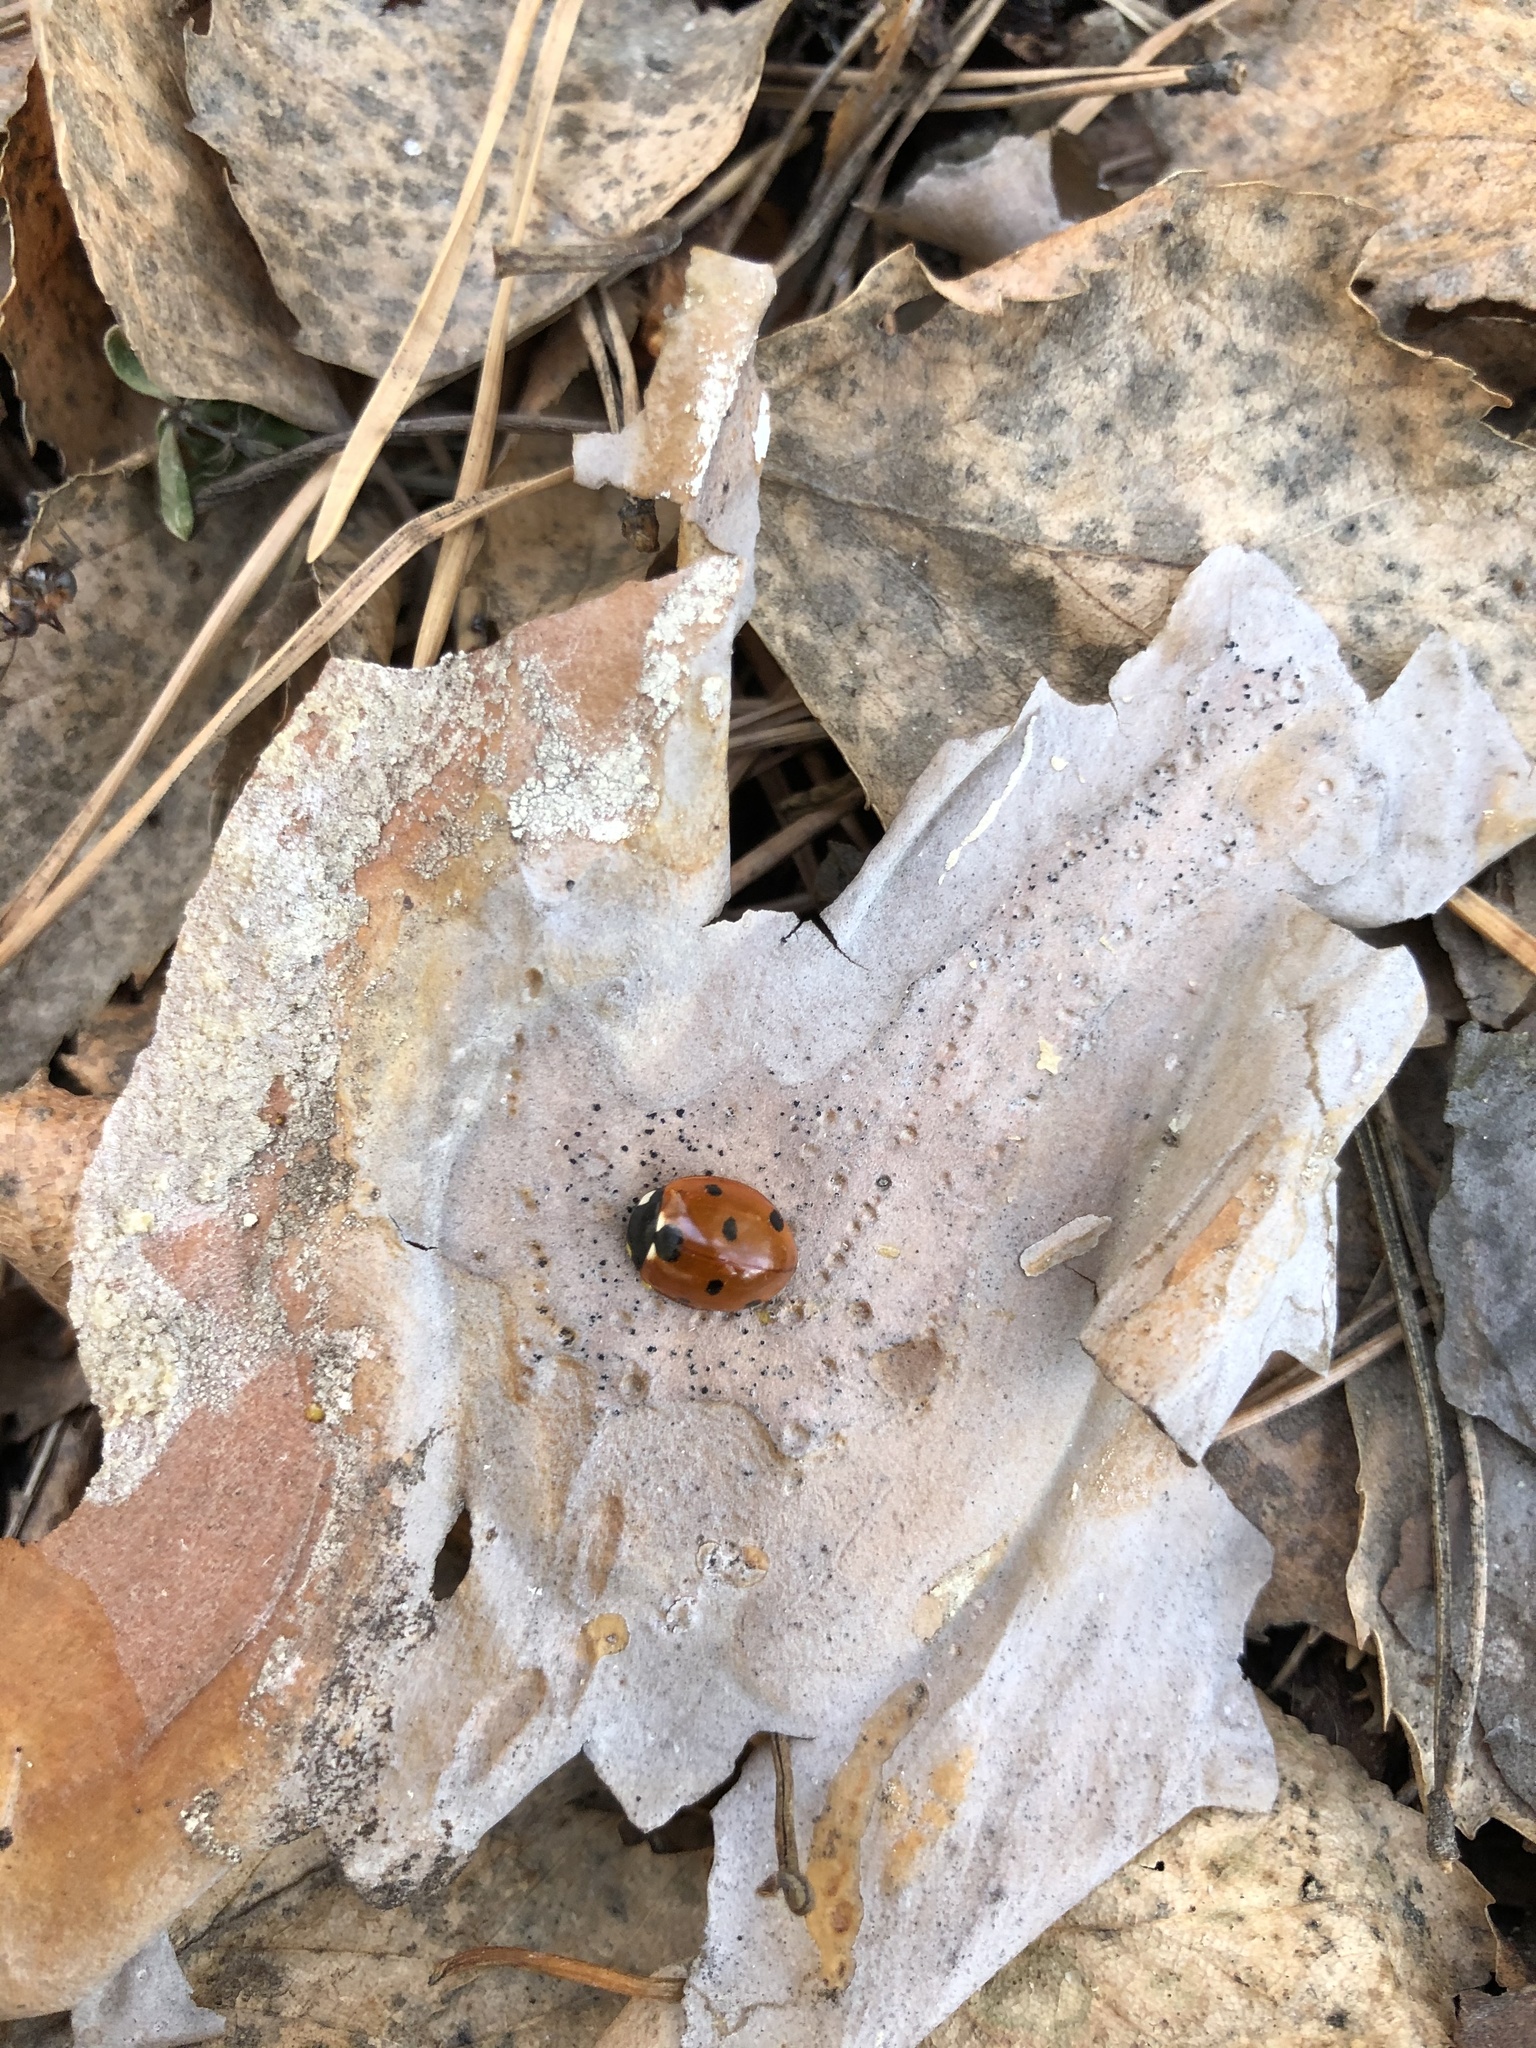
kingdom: Animalia
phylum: Arthropoda
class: Insecta
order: Coleoptera
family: Coccinellidae
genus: Coccinella
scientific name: Coccinella septempunctata
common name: Sevenspotted lady beetle
